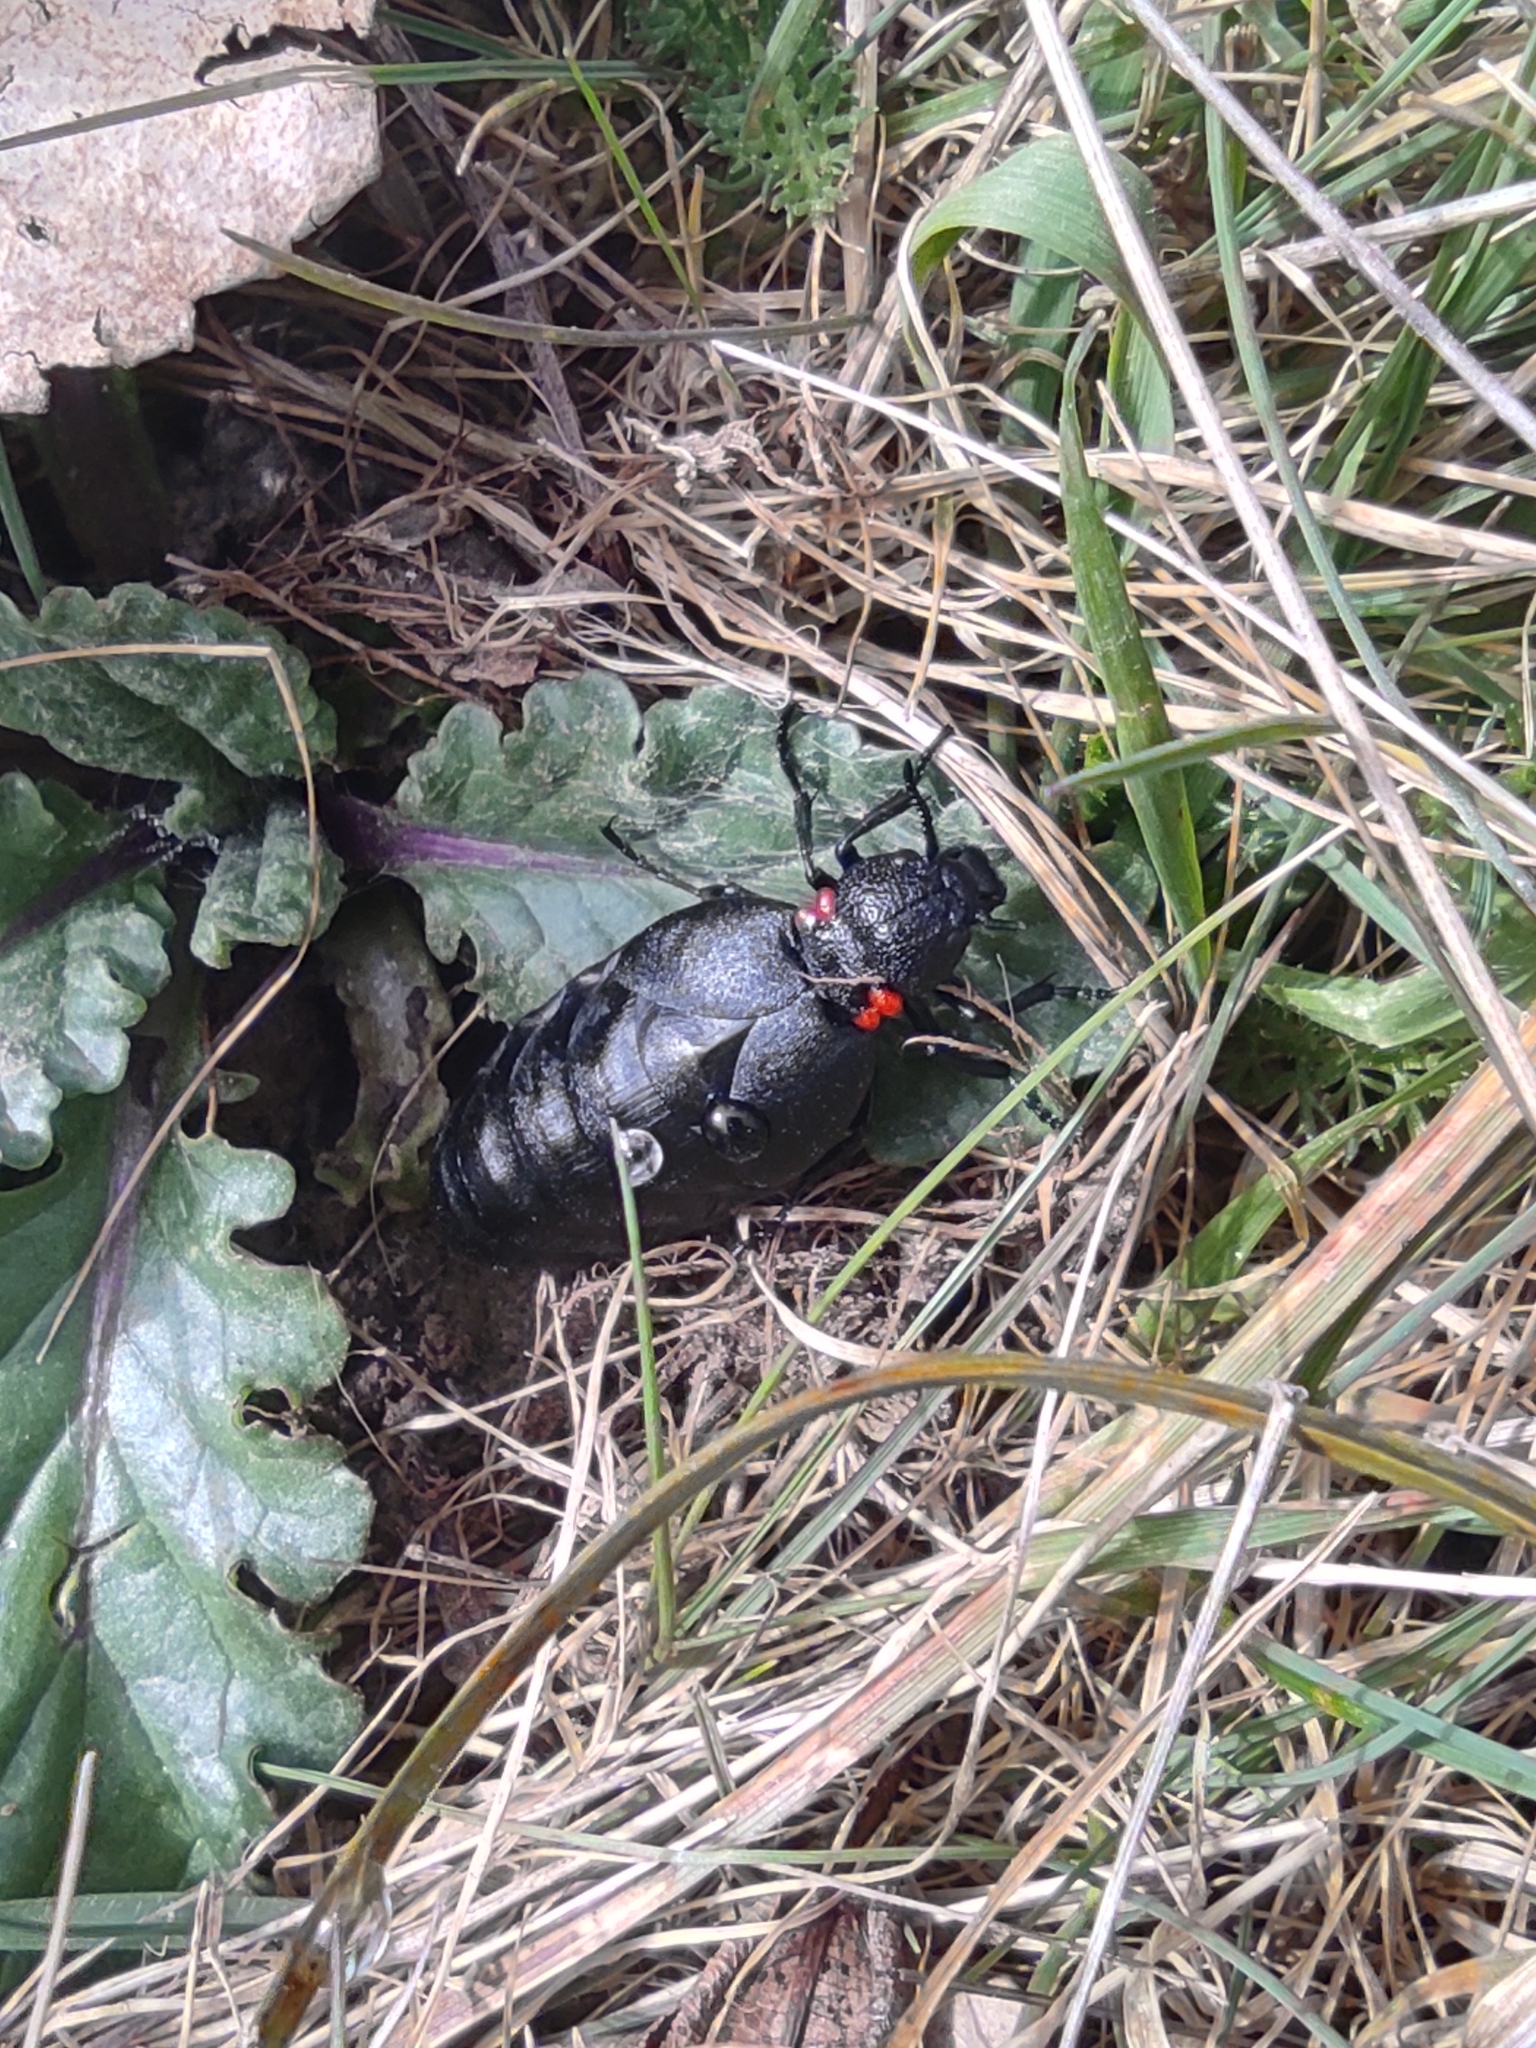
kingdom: Animalia
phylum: Arthropoda
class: Insecta
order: Coleoptera
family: Meloidae
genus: Physomeloe
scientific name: Physomeloe corallifer
